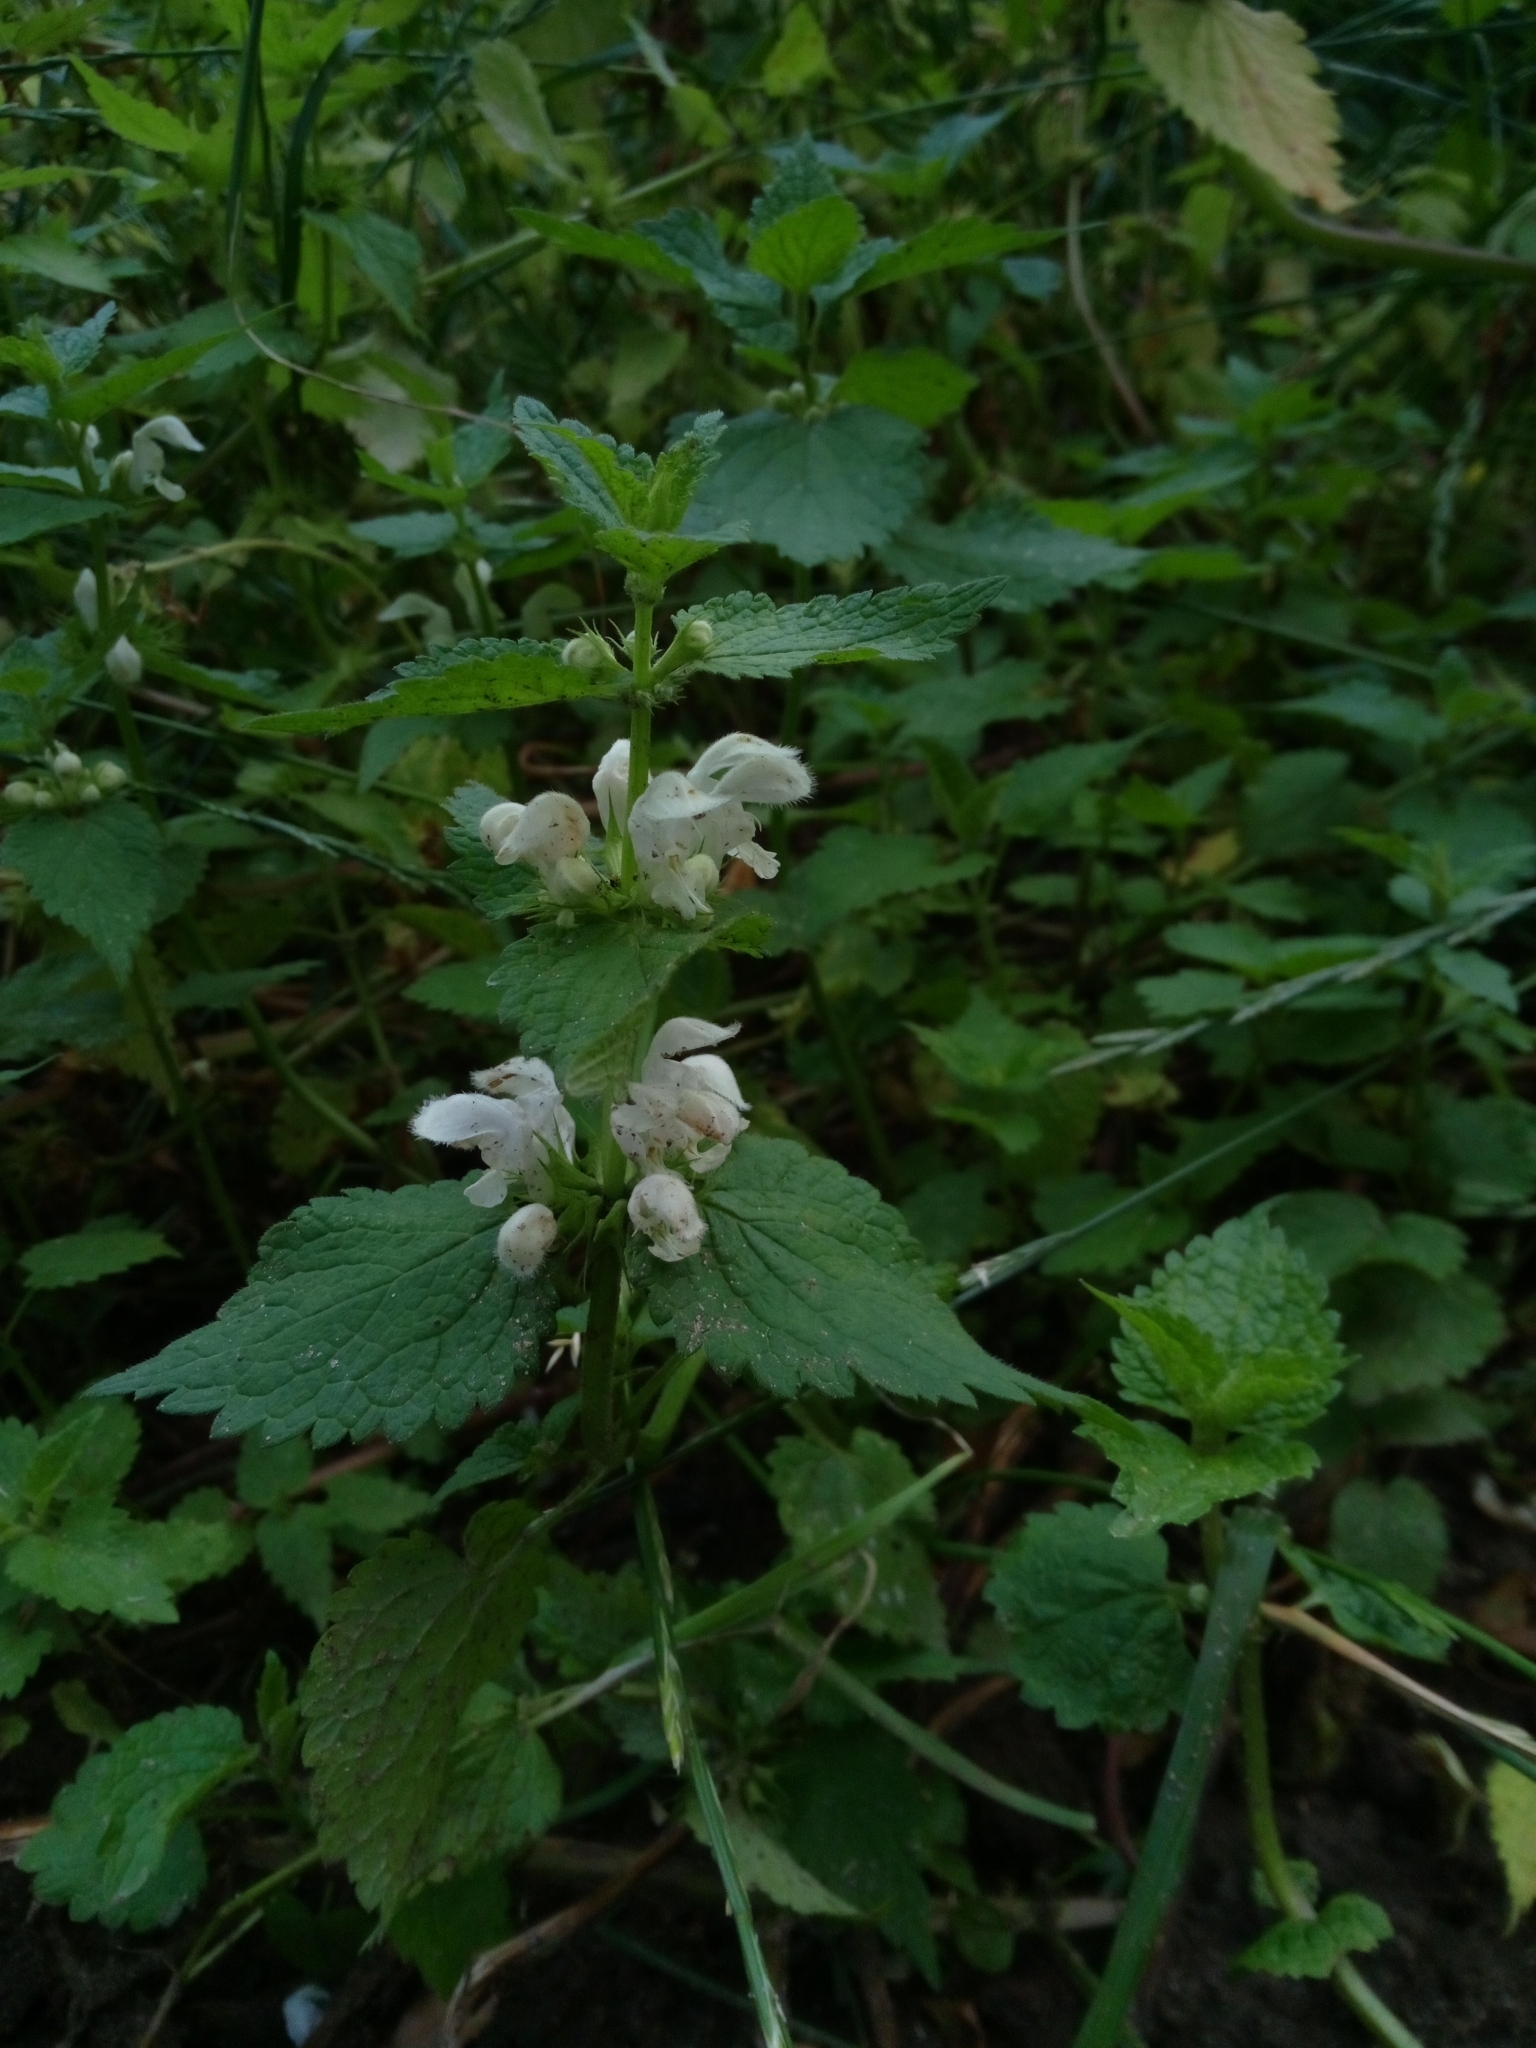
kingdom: Plantae
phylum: Tracheophyta
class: Magnoliopsida
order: Lamiales
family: Lamiaceae
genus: Lamium
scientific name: Lamium album
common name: White dead-nettle
